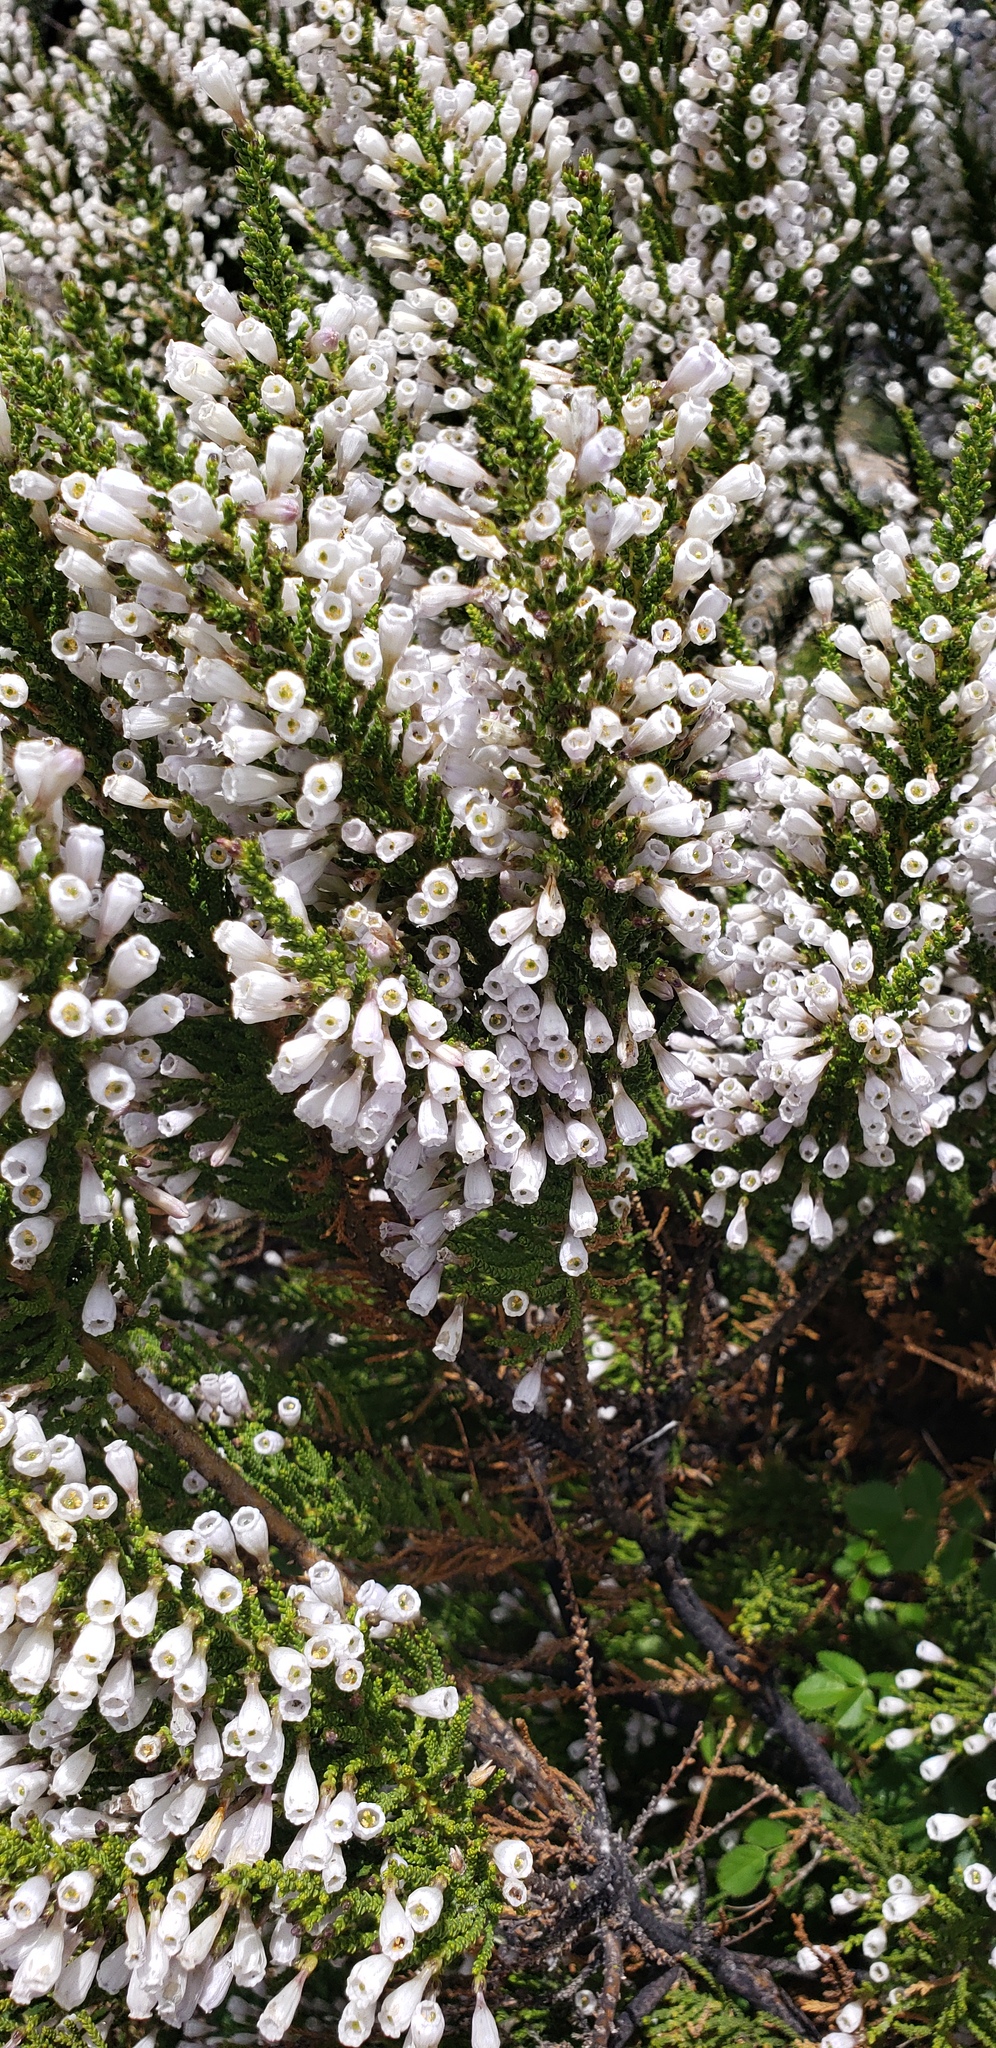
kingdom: Plantae
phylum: Tracheophyta
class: Magnoliopsida
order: Solanales
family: Solanaceae
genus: Fabiana
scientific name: Fabiana imbricata
